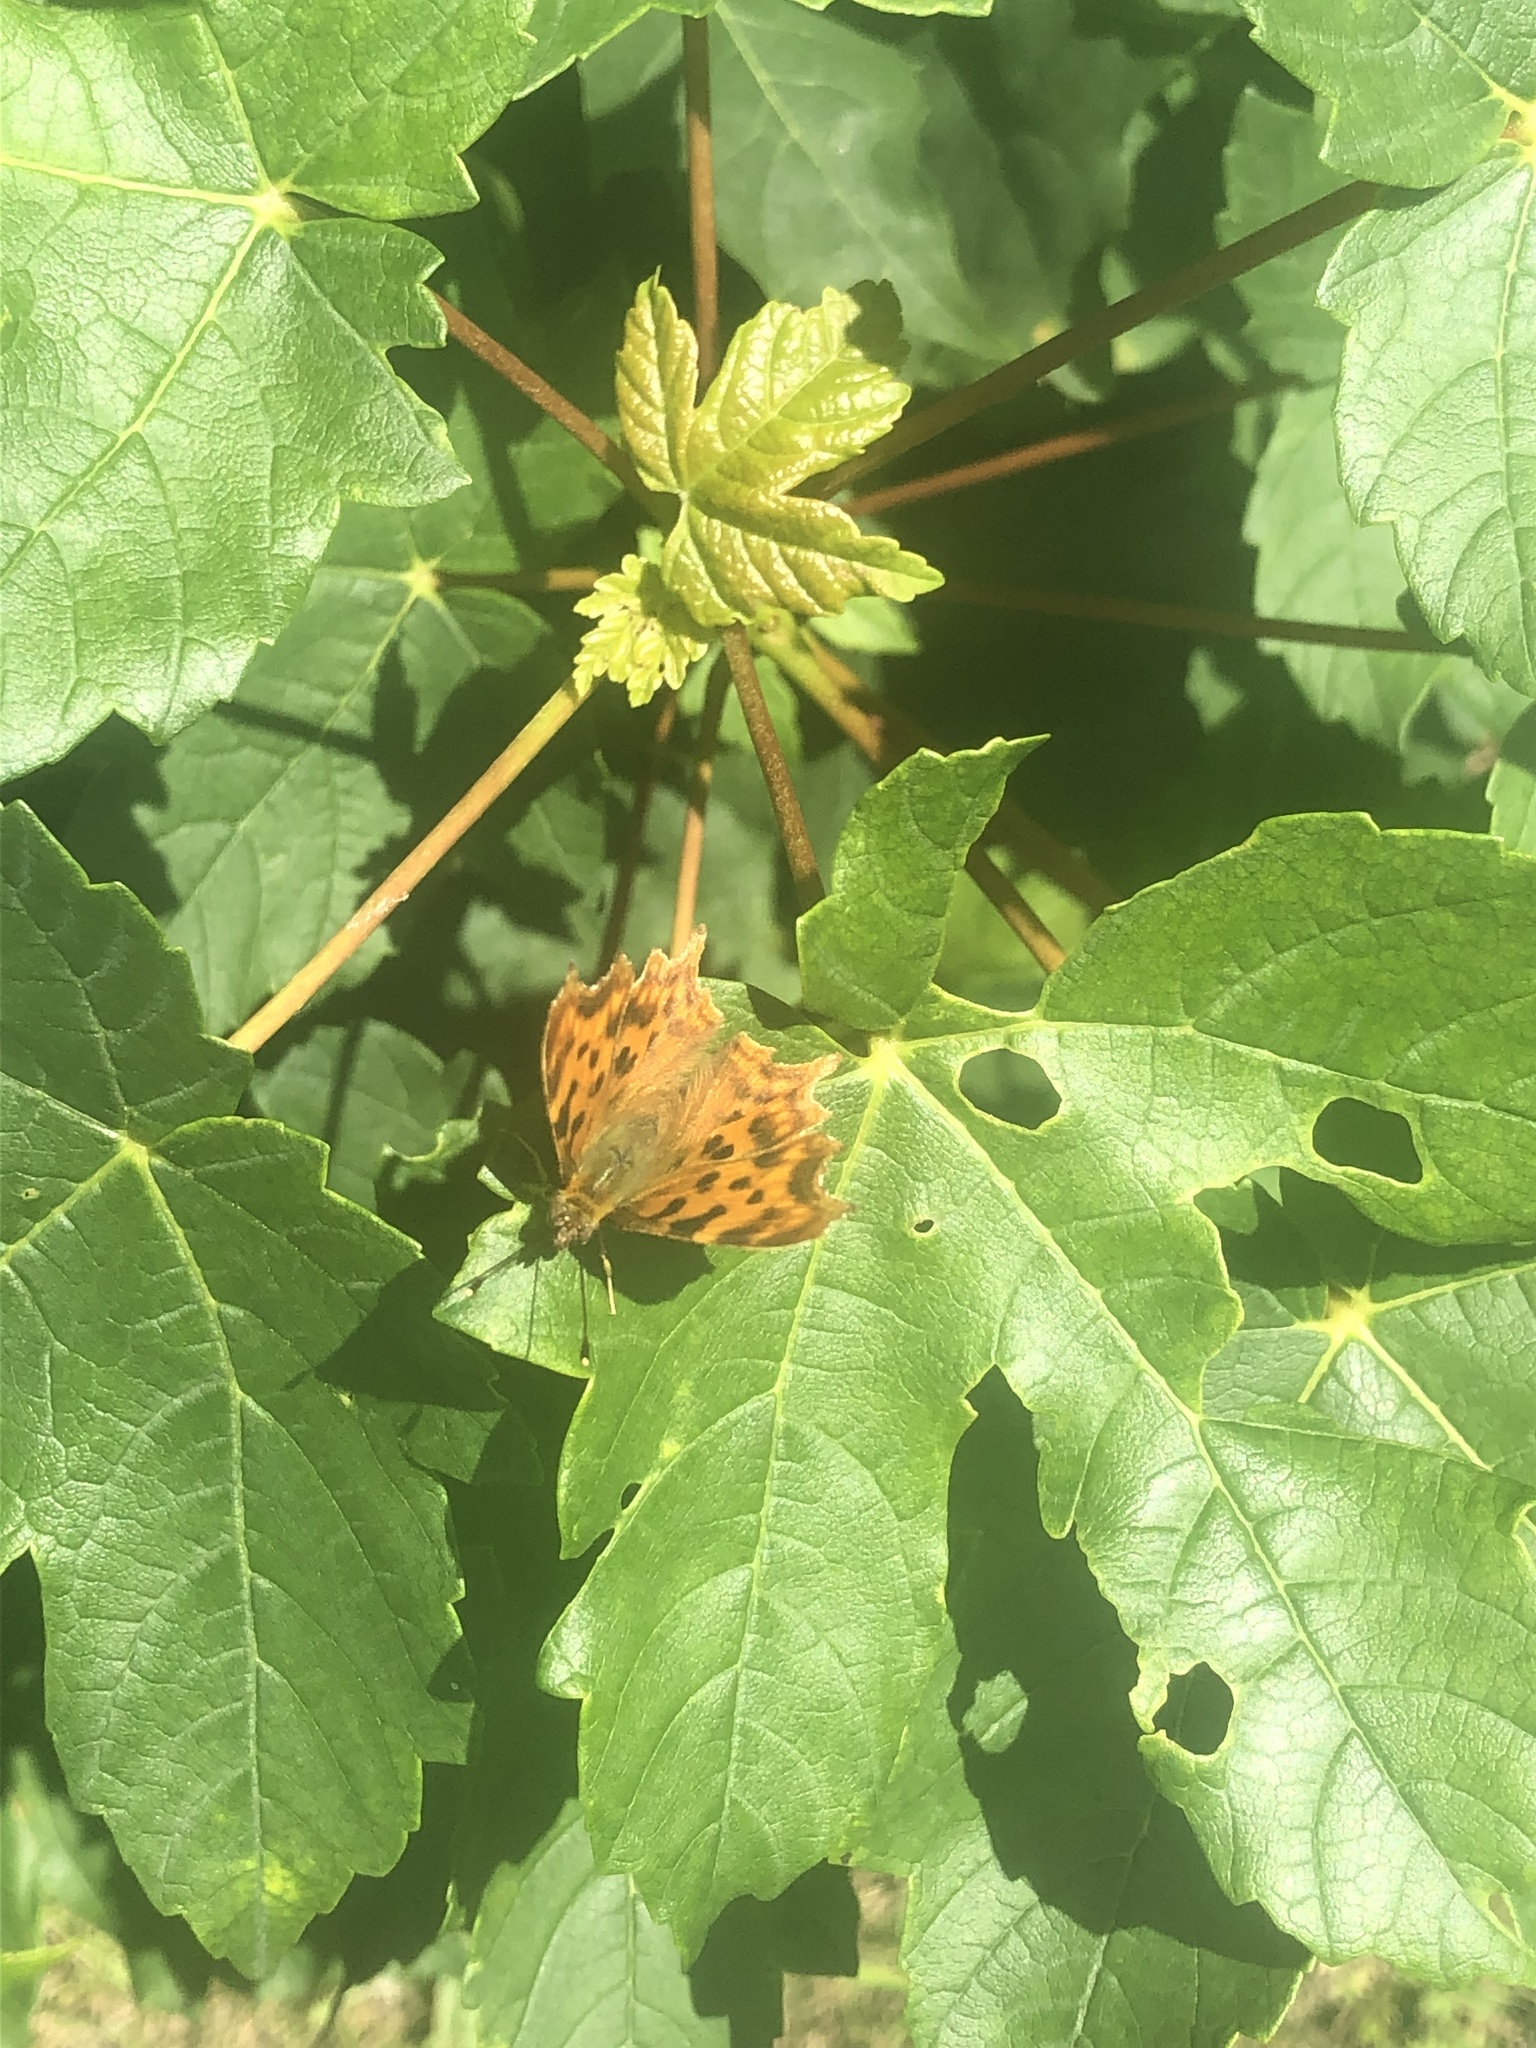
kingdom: Animalia
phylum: Arthropoda
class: Insecta
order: Lepidoptera
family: Nymphalidae
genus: Polygonia
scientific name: Polygonia c-album
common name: Comma
